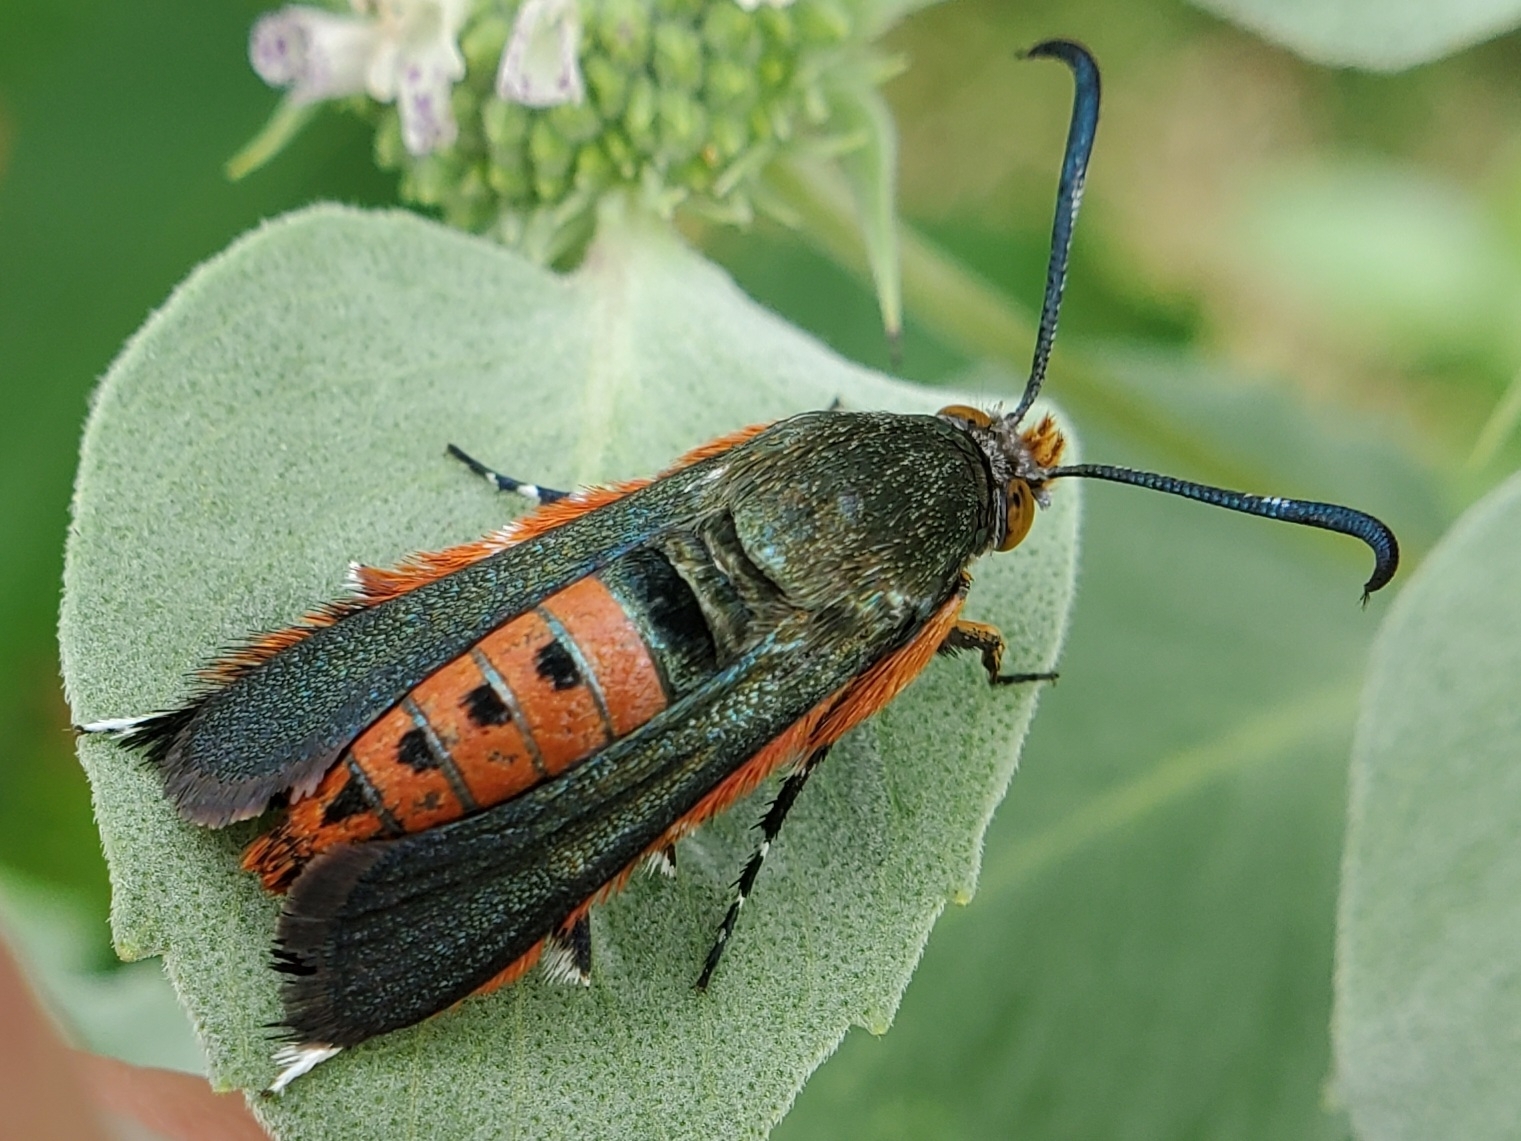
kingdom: Animalia
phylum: Arthropoda
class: Insecta
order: Lepidoptera
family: Sesiidae
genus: Eichlinia
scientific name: Eichlinia cucurbitae
